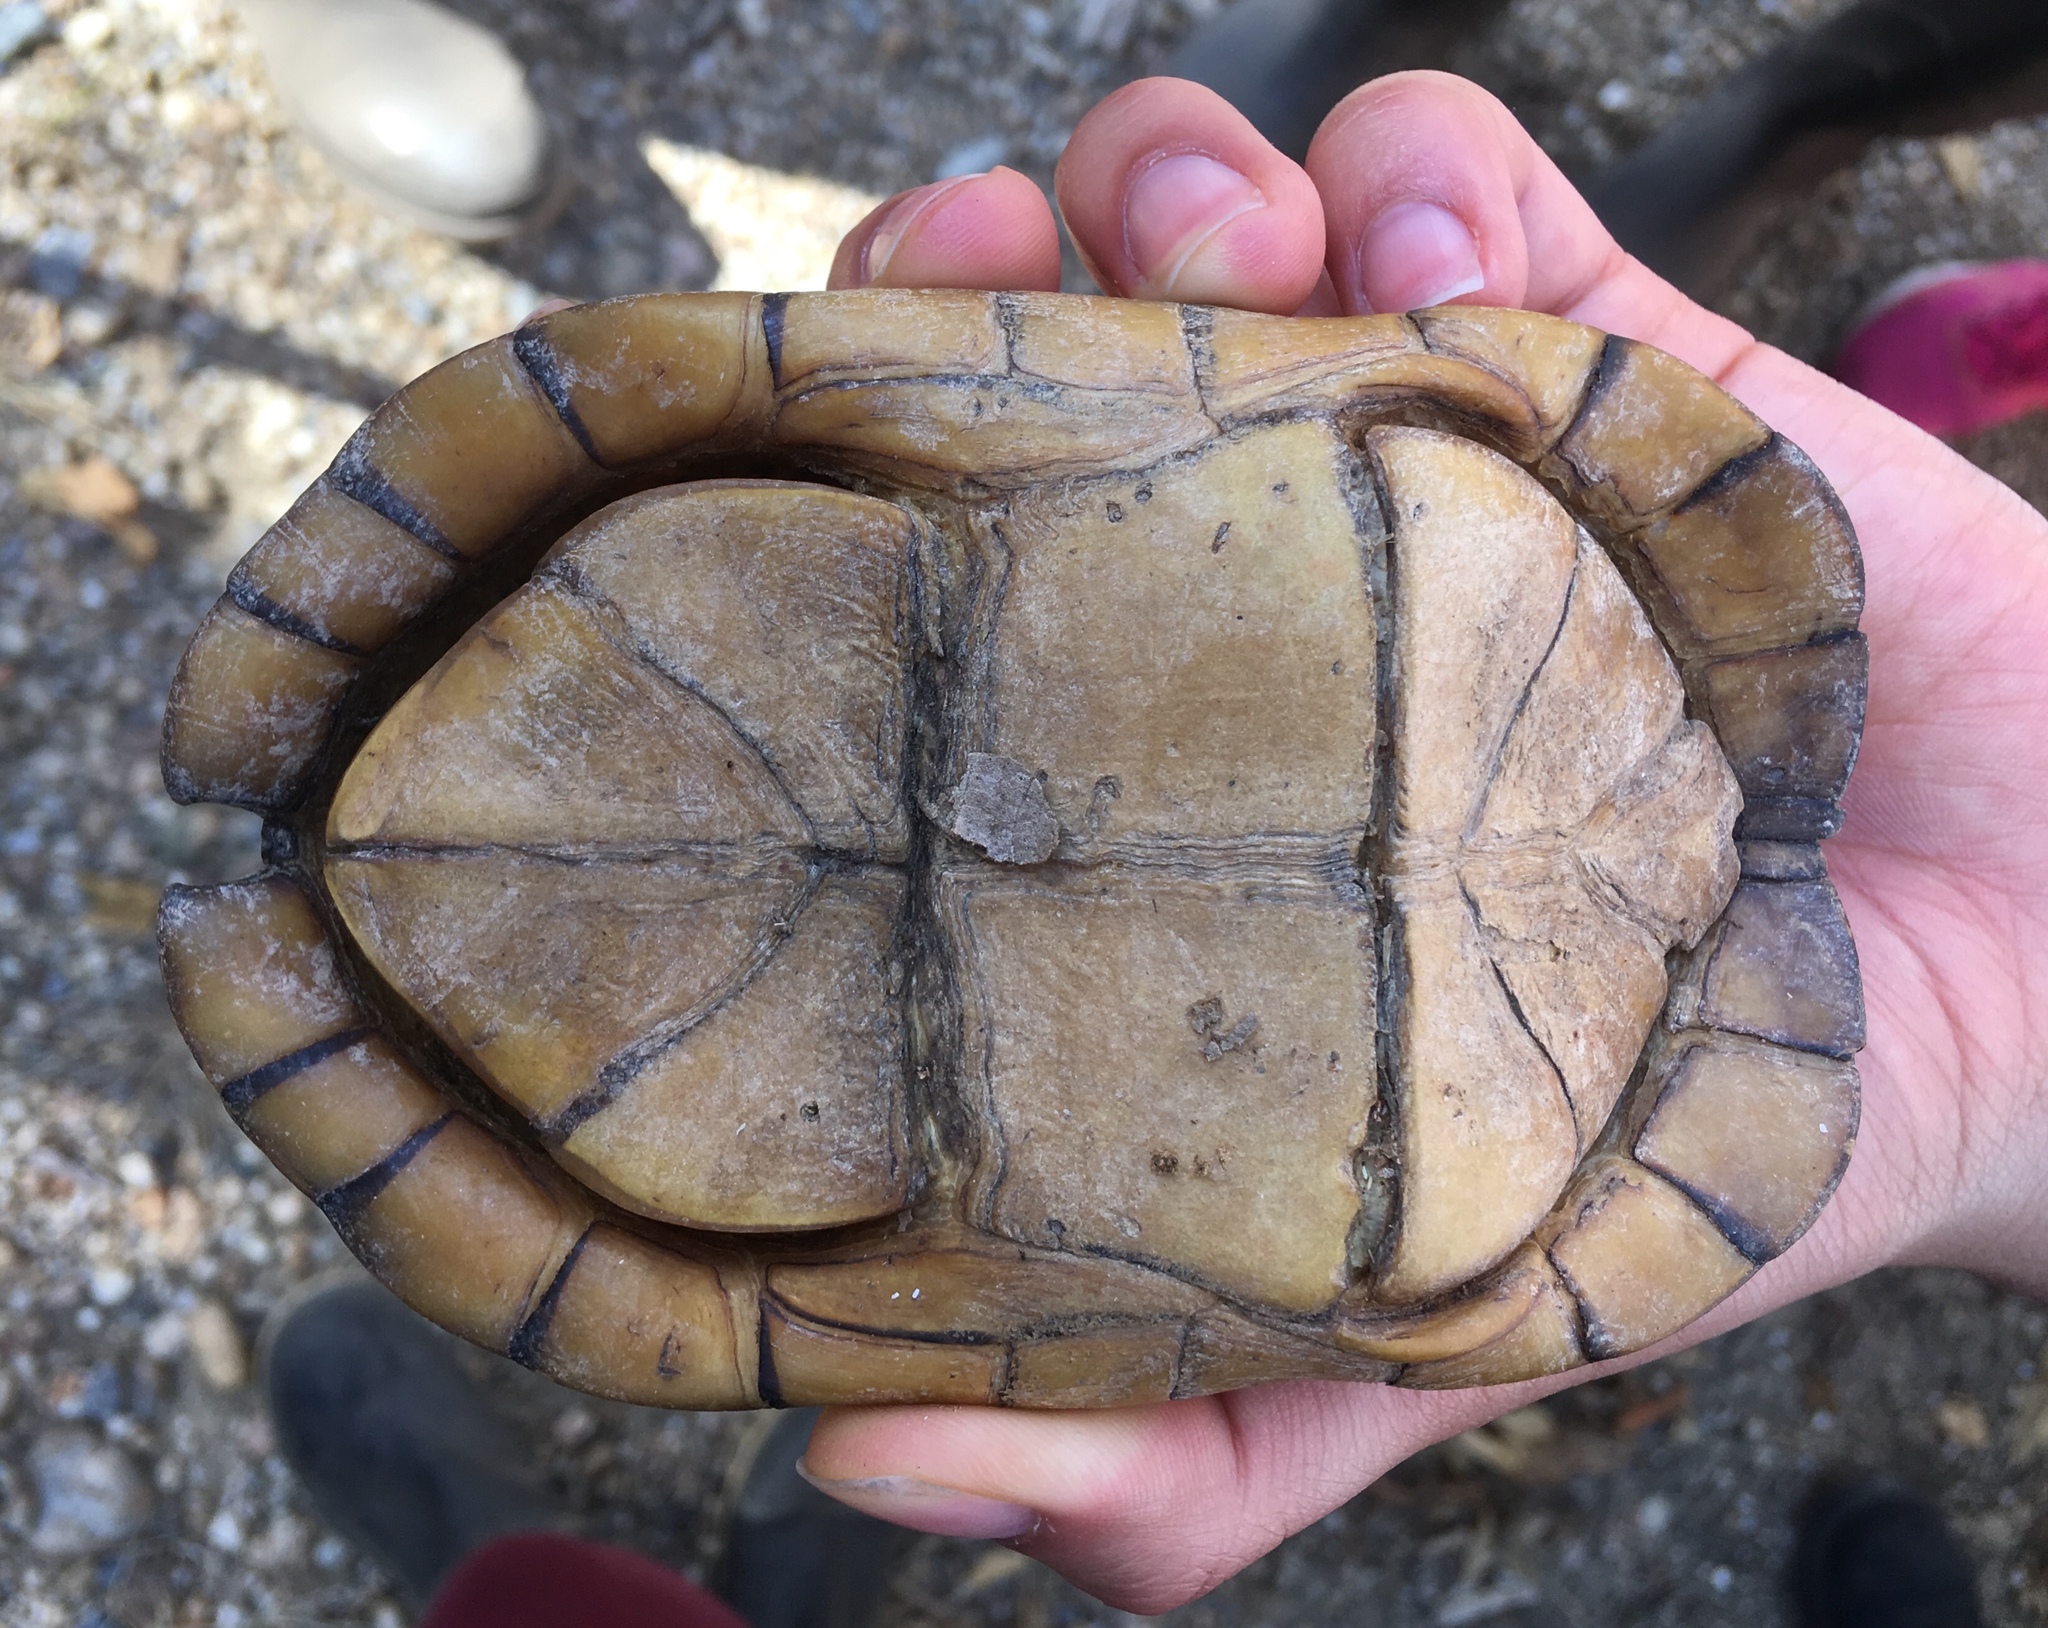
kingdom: Animalia
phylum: Chordata
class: Testudines
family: Kinosternidae
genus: Kinosternon
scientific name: Kinosternon leucostomum
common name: White-lipped mud turtle
